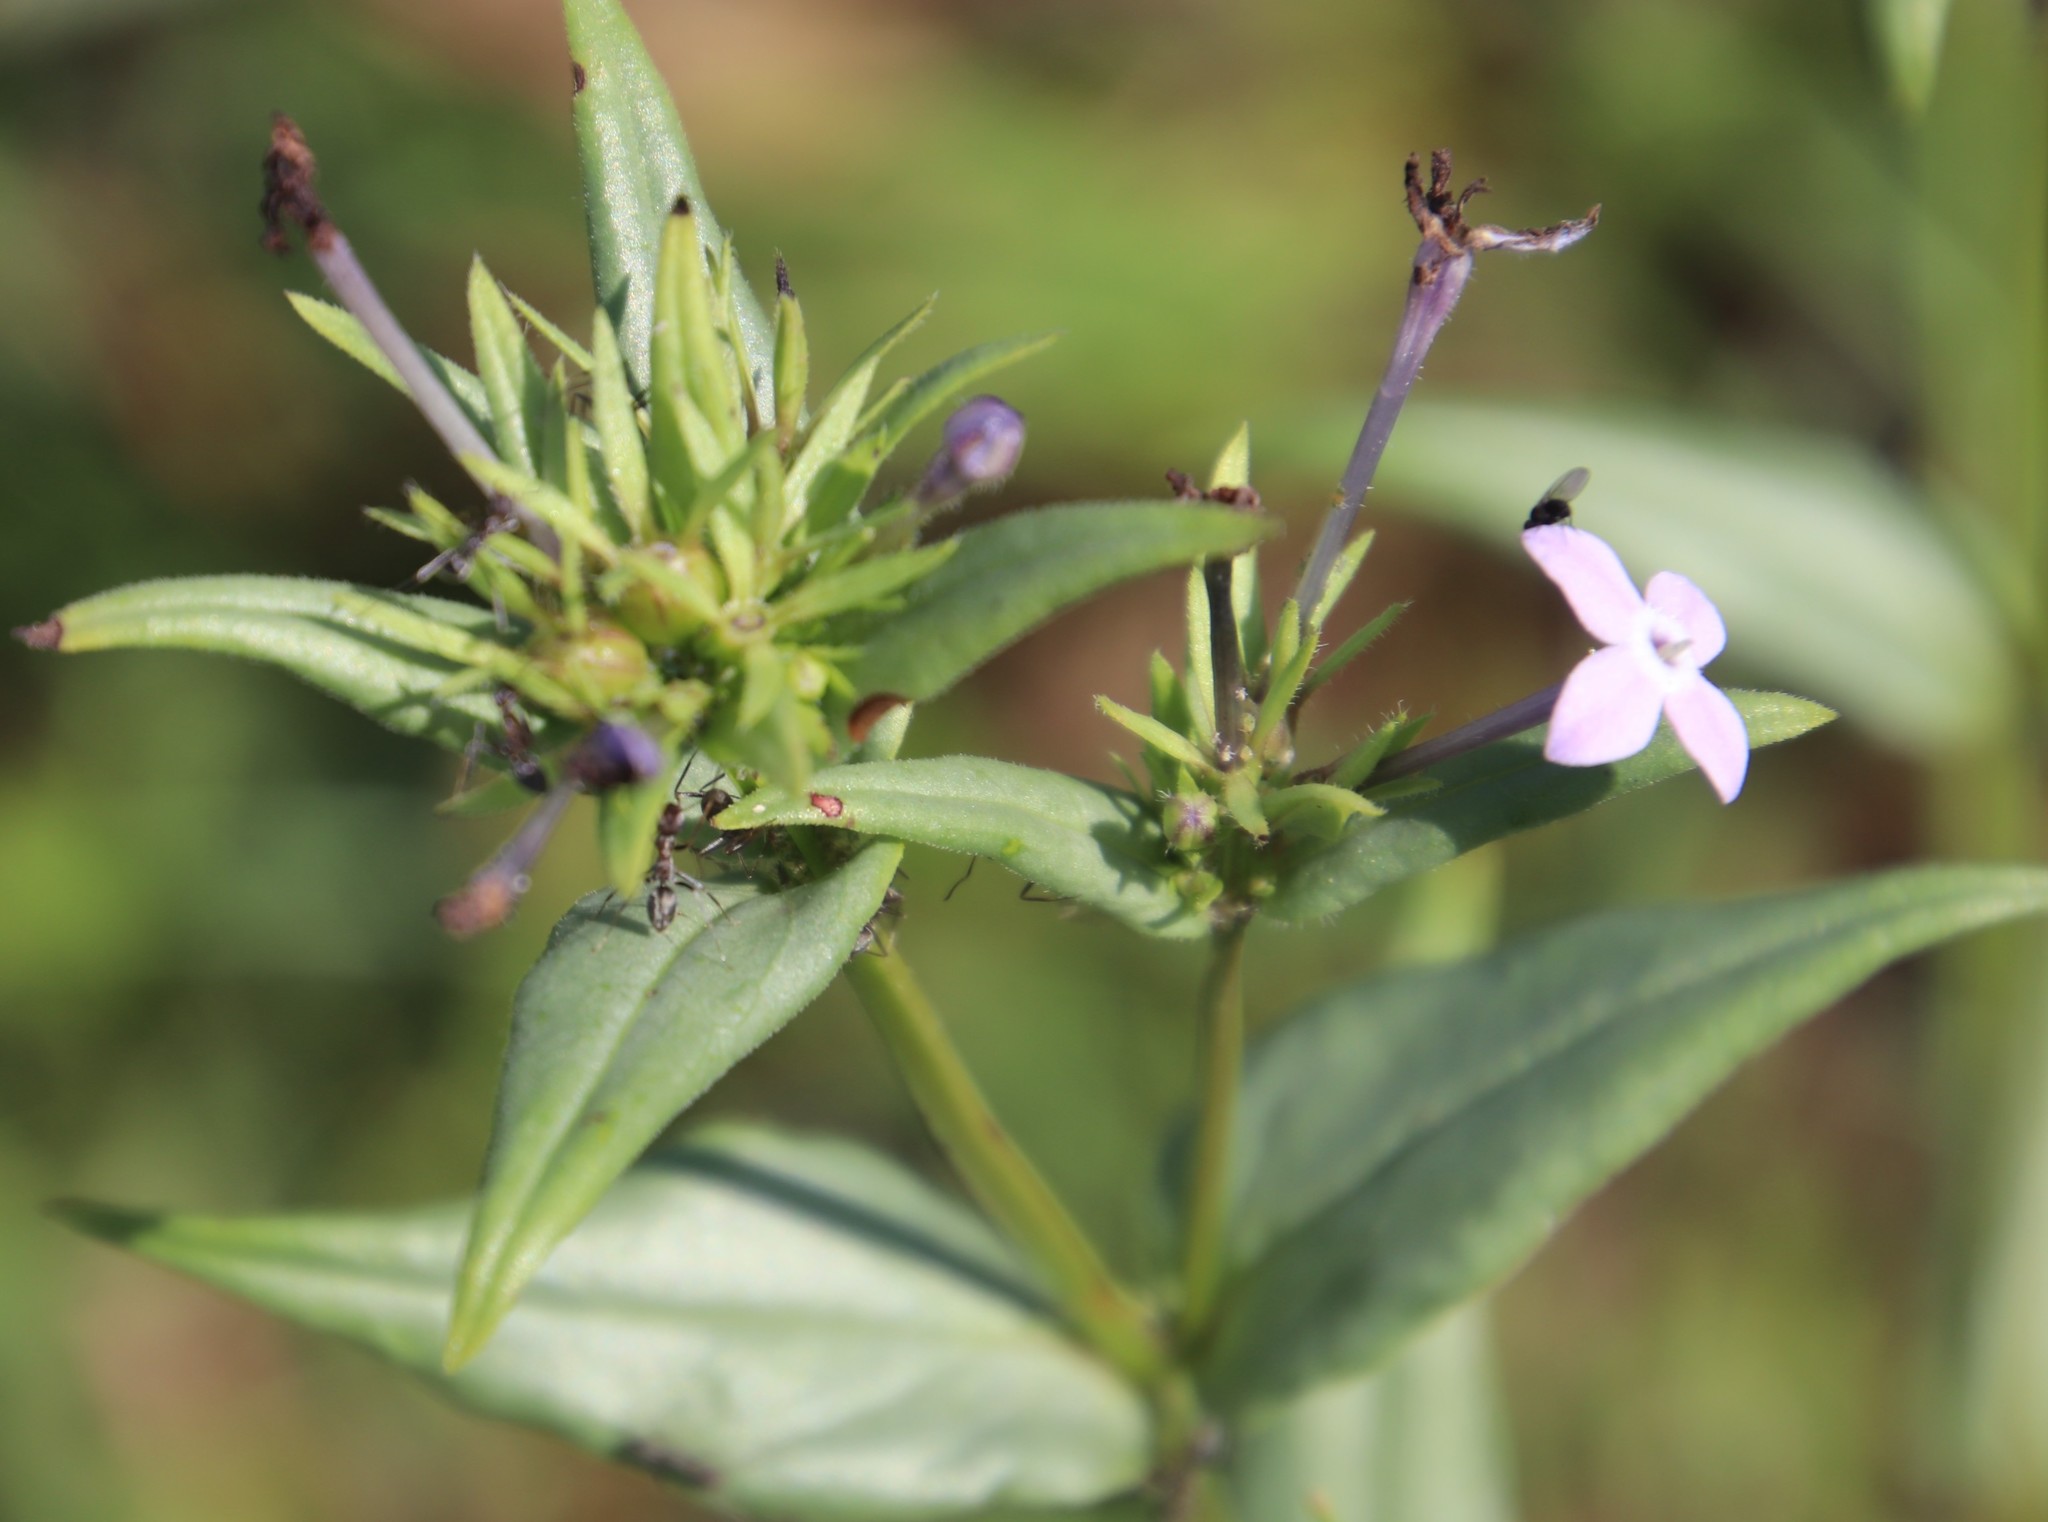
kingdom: Animalia
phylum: Arthropoda
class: Insecta
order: Hymenoptera
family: Formicidae
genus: Anoplolepis
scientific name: Anoplolepis steingroeveri
